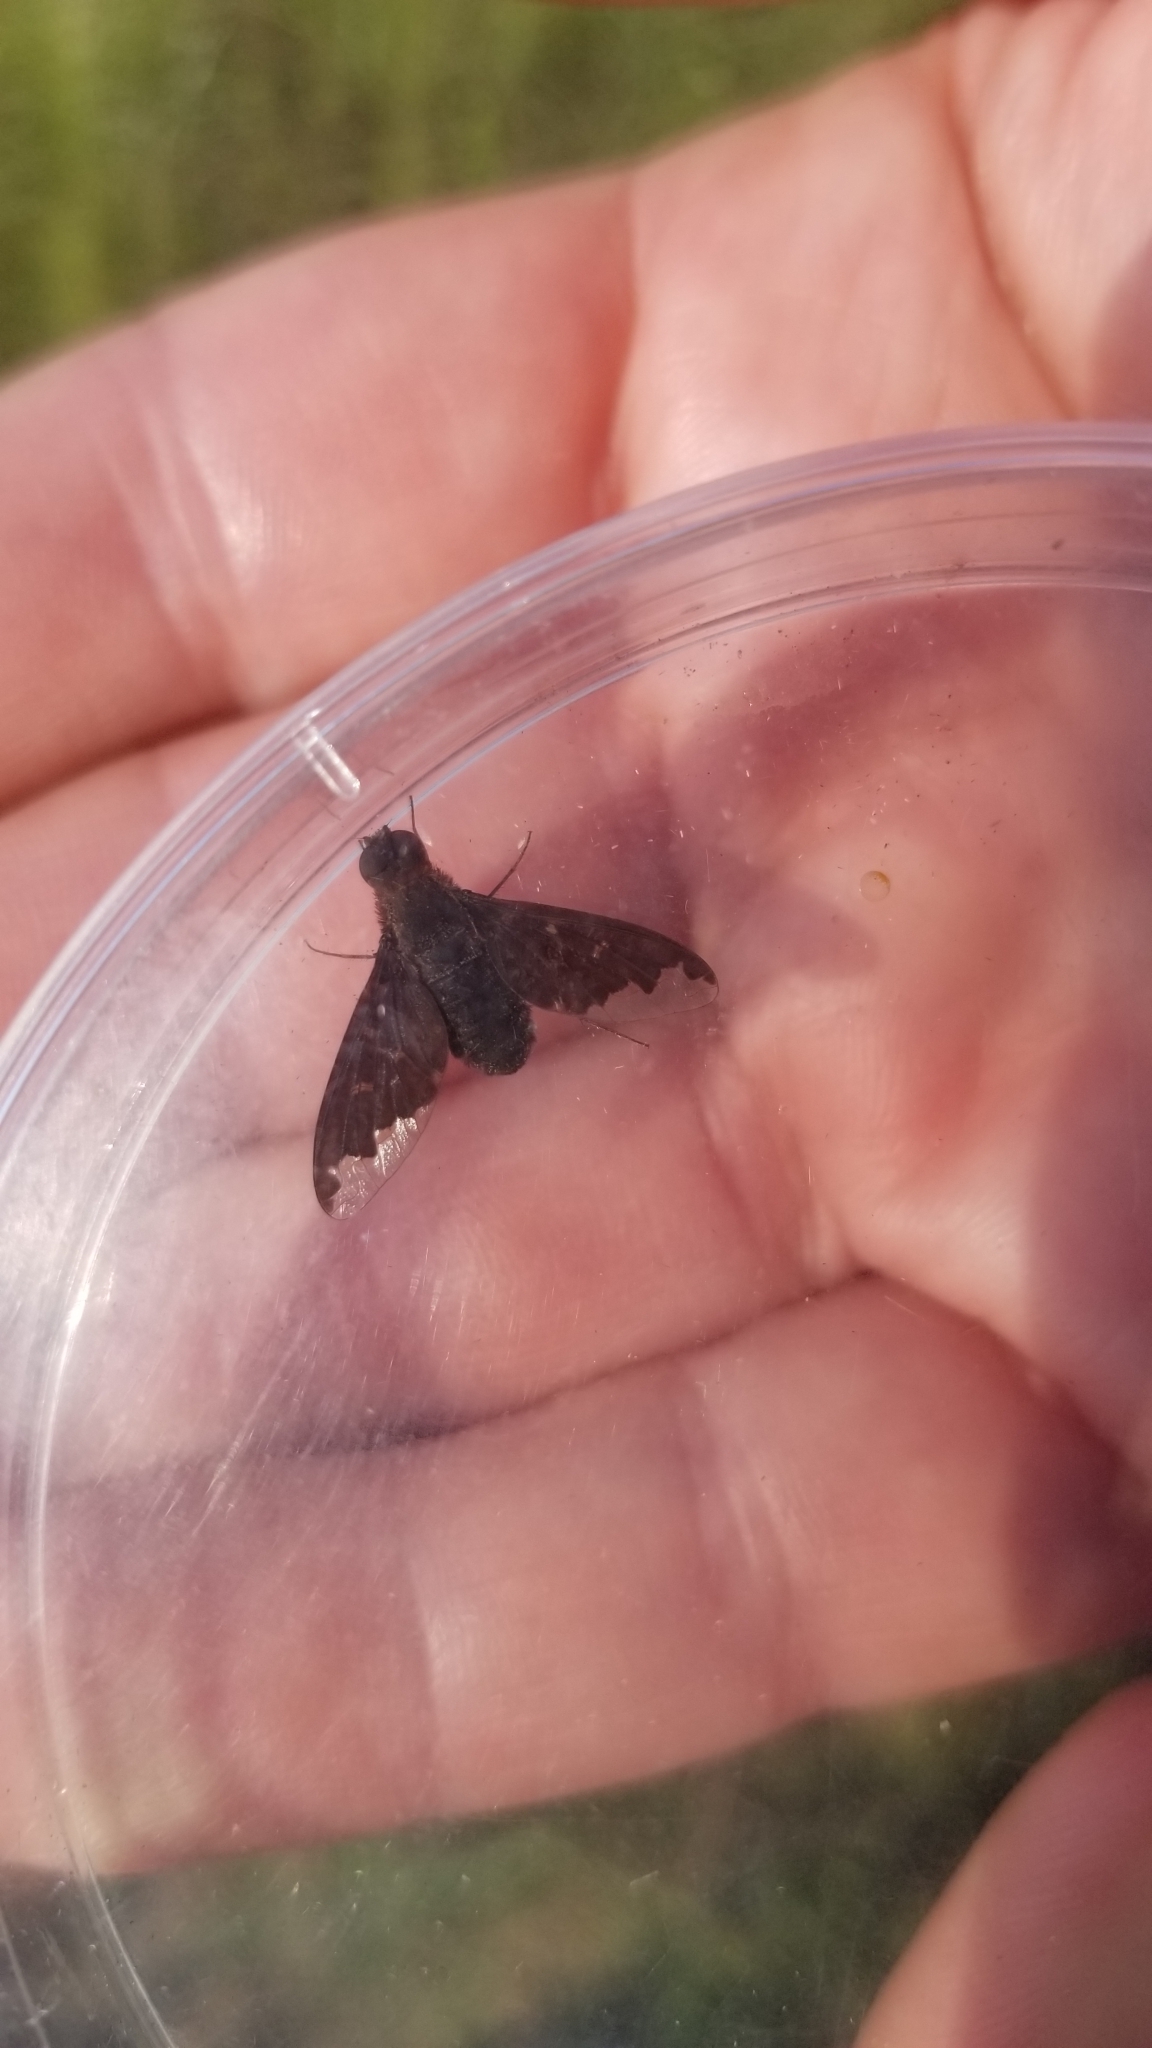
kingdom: Animalia
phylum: Arthropoda
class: Insecta
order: Diptera
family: Bombyliidae
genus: Hemipenthes
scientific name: Hemipenthes sinuosus
